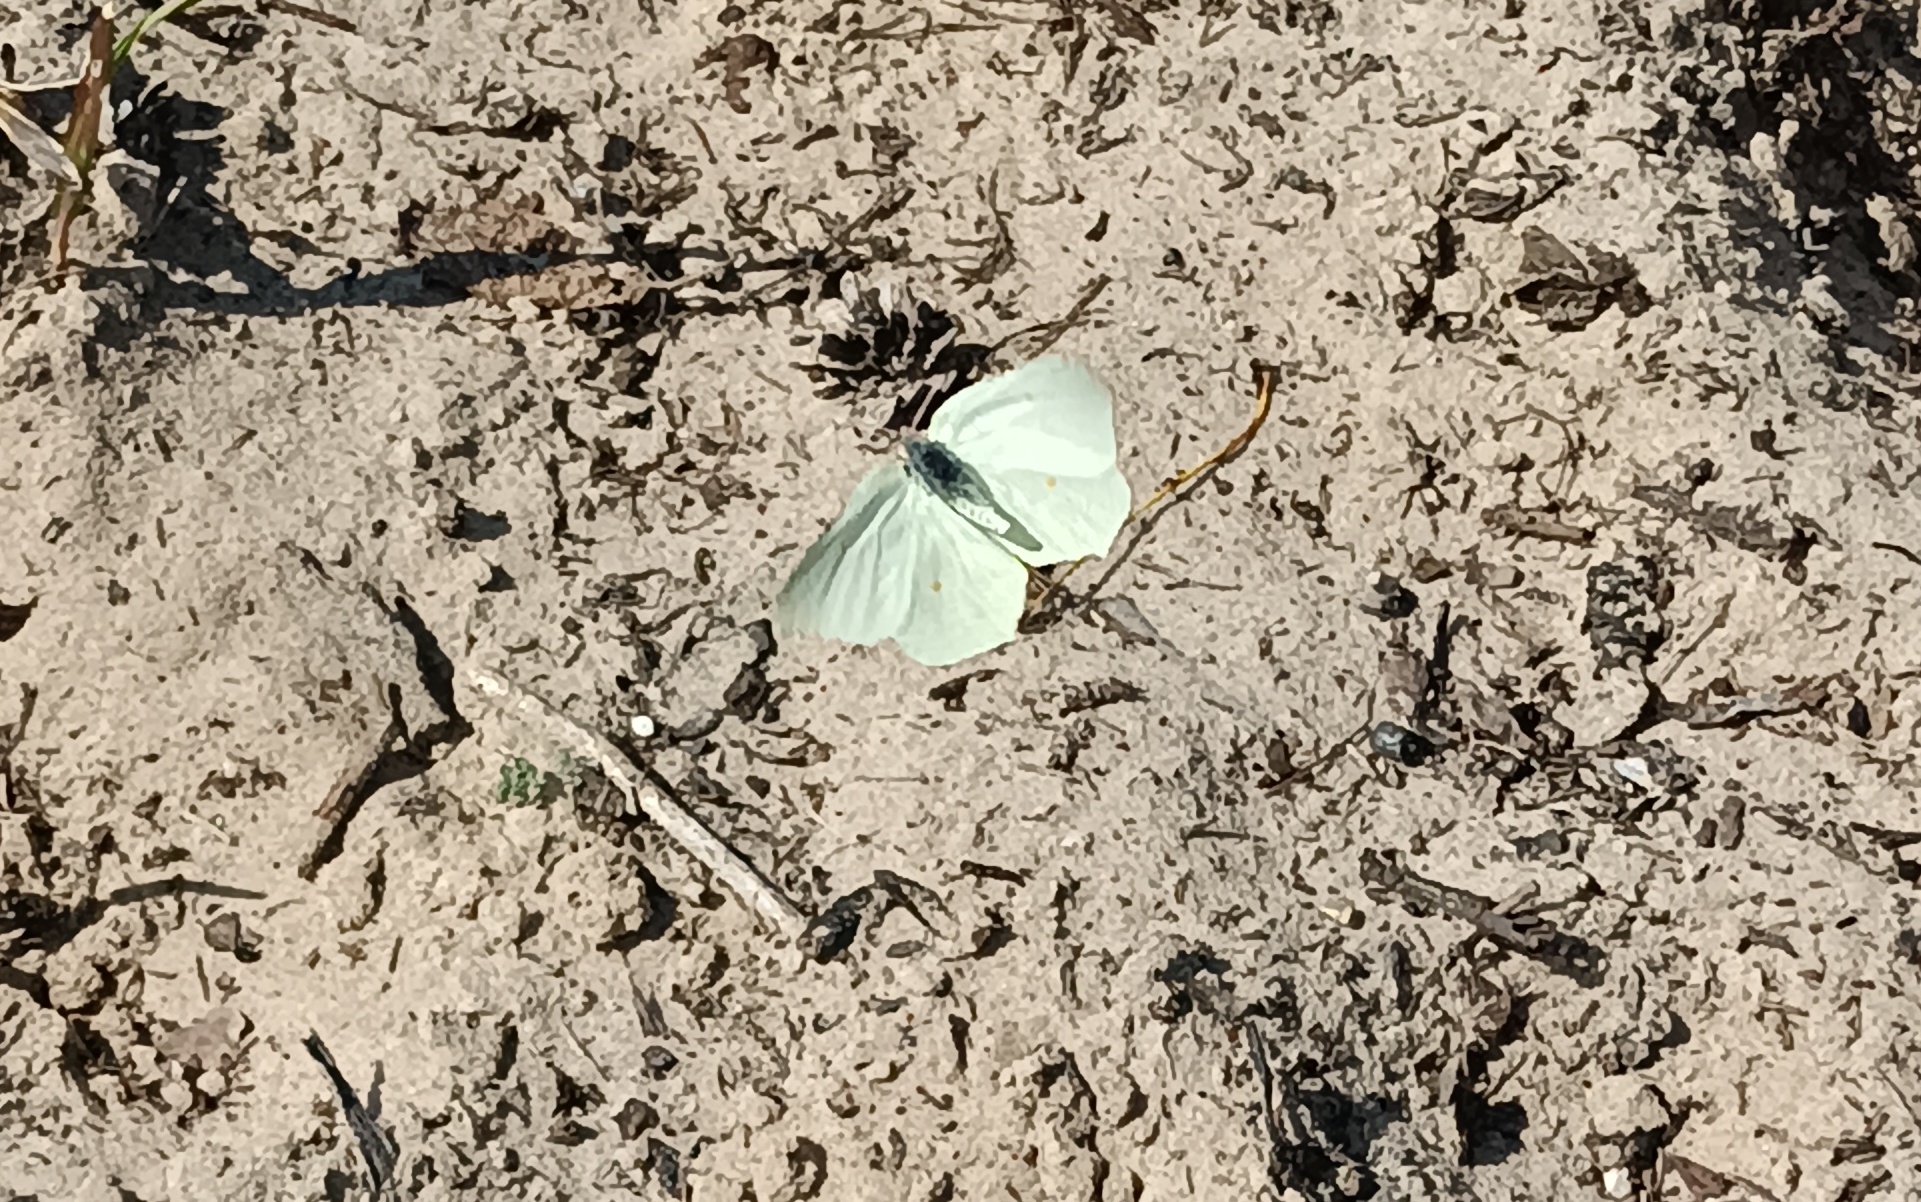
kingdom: Animalia
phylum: Arthropoda
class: Insecta
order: Lepidoptera
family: Pieridae
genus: Gonepteryx
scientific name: Gonepteryx rhamni
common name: Brimstone
